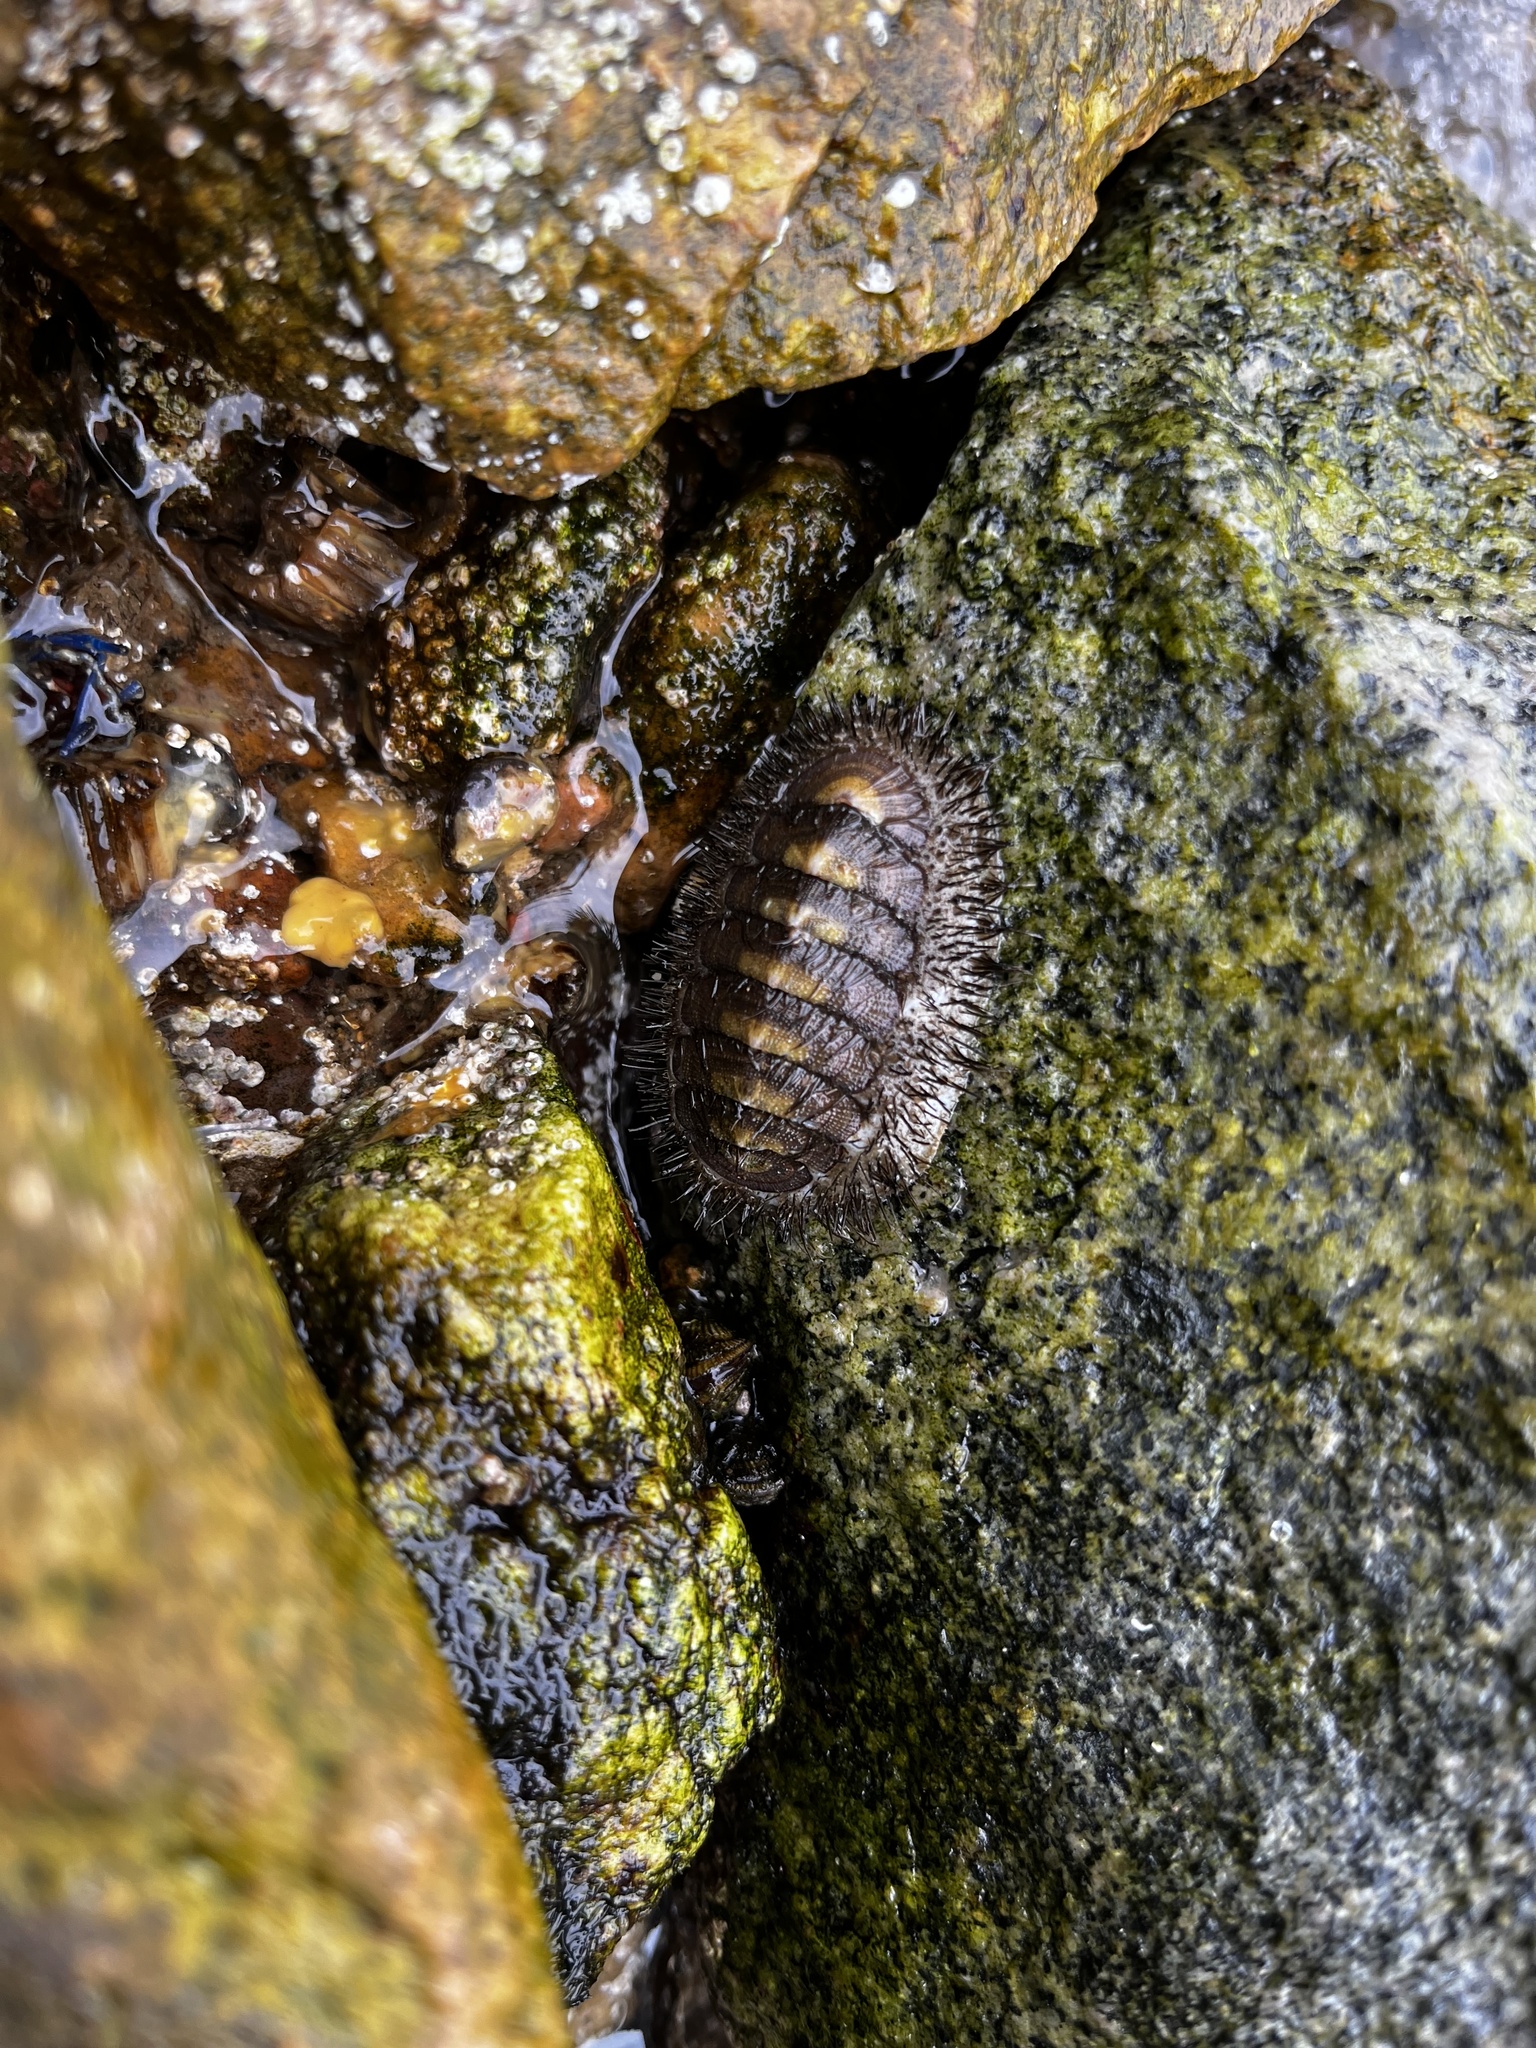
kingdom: Animalia
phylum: Mollusca
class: Polyplacophora
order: Chitonida
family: Chaetopleuridae
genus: Chaetopleura
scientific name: Chaetopleura peruviana
